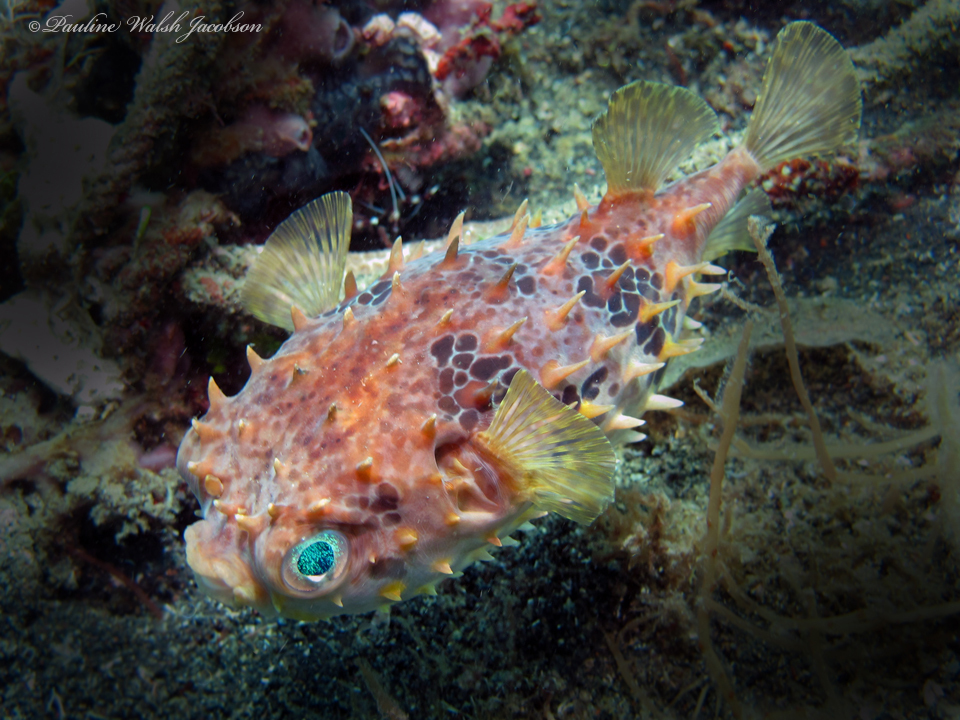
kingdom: Animalia
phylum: Chordata
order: Tetraodontiformes
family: Diodontidae
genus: Cyclichthys
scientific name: Cyclichthys orbicularis
